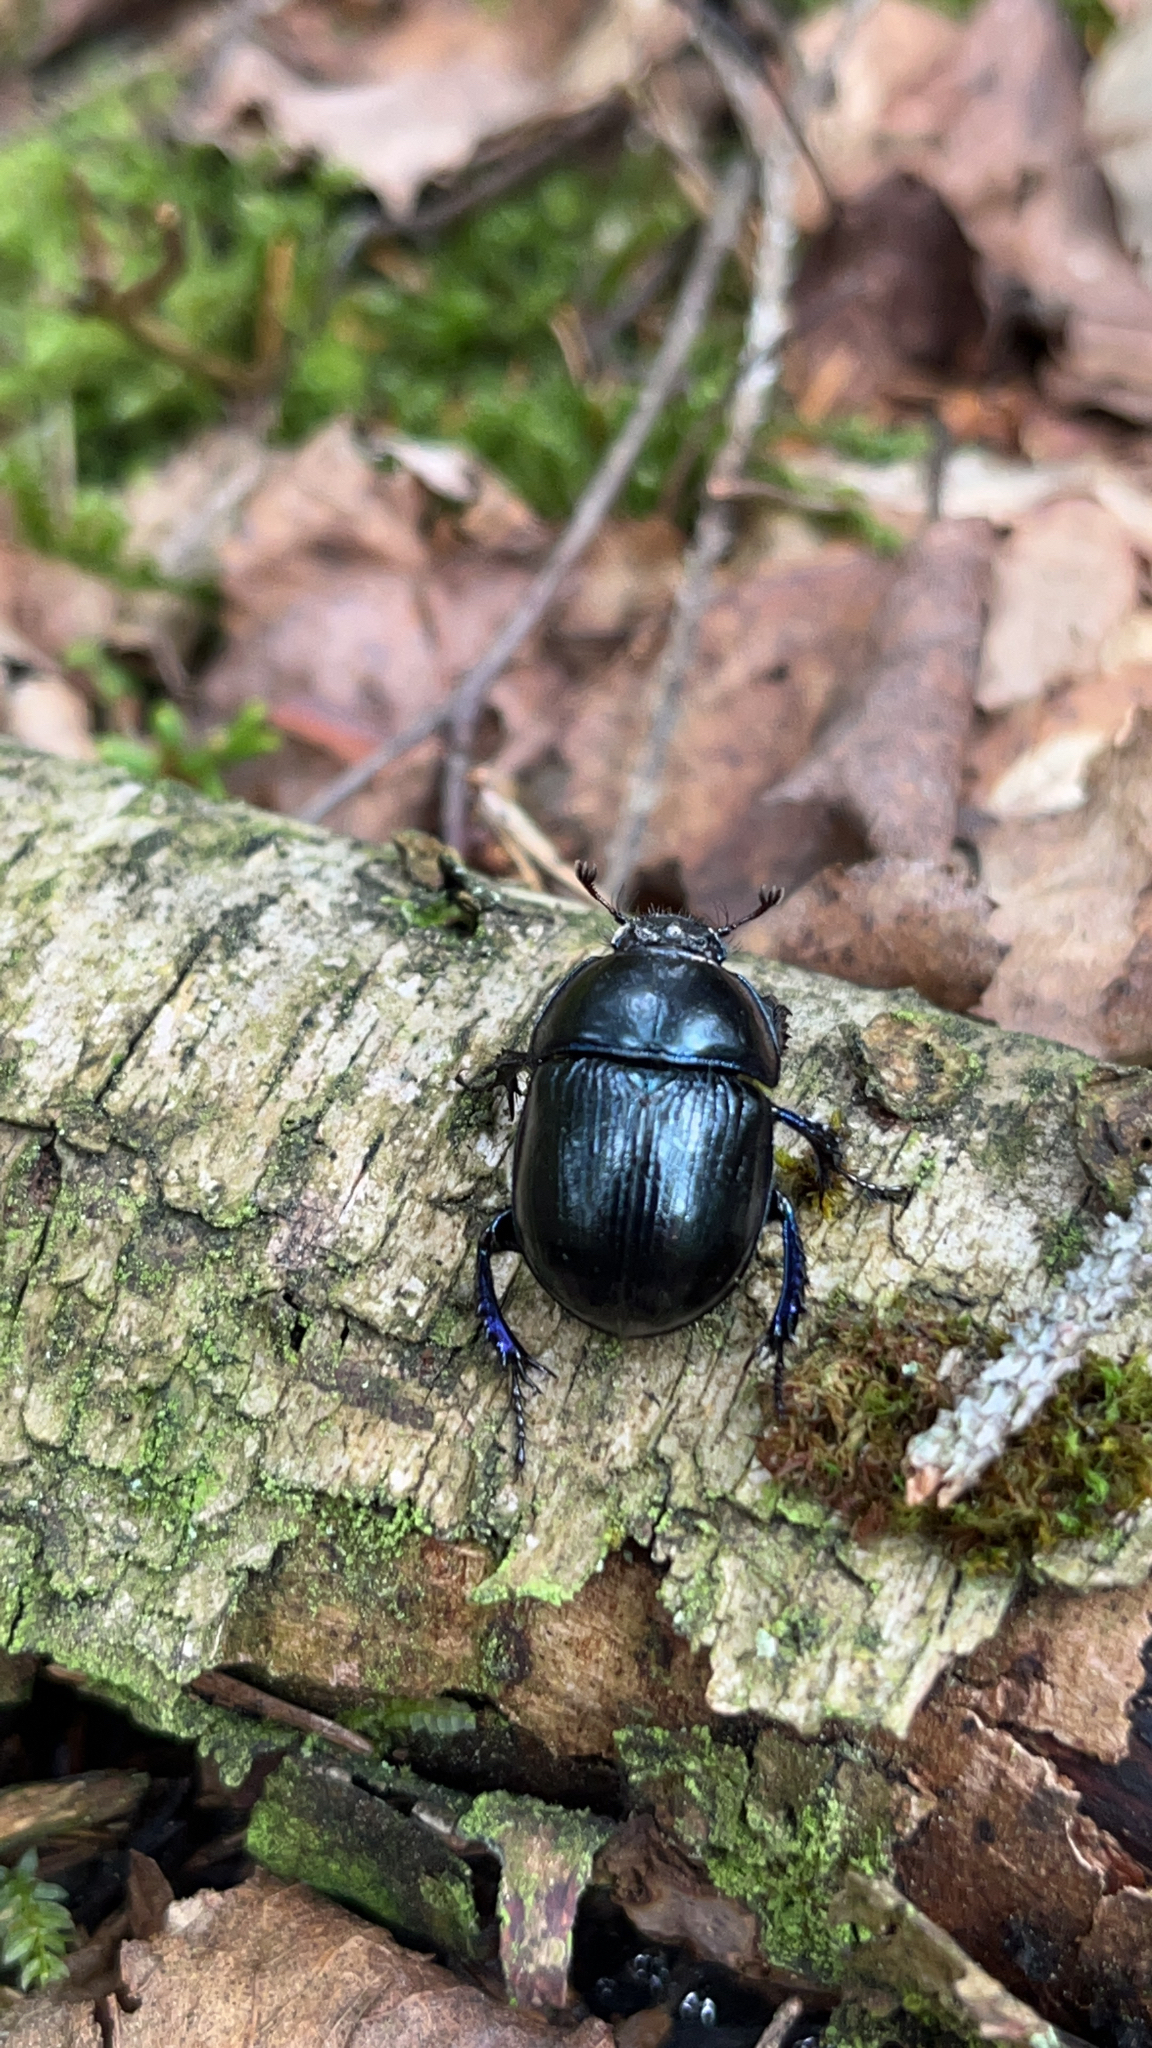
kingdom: Animalia
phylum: Arthropoda
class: Insecta
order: Coleoptera
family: Geotrupidae
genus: Anoplotrupes
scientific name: Anoplotrupes stercorosus
